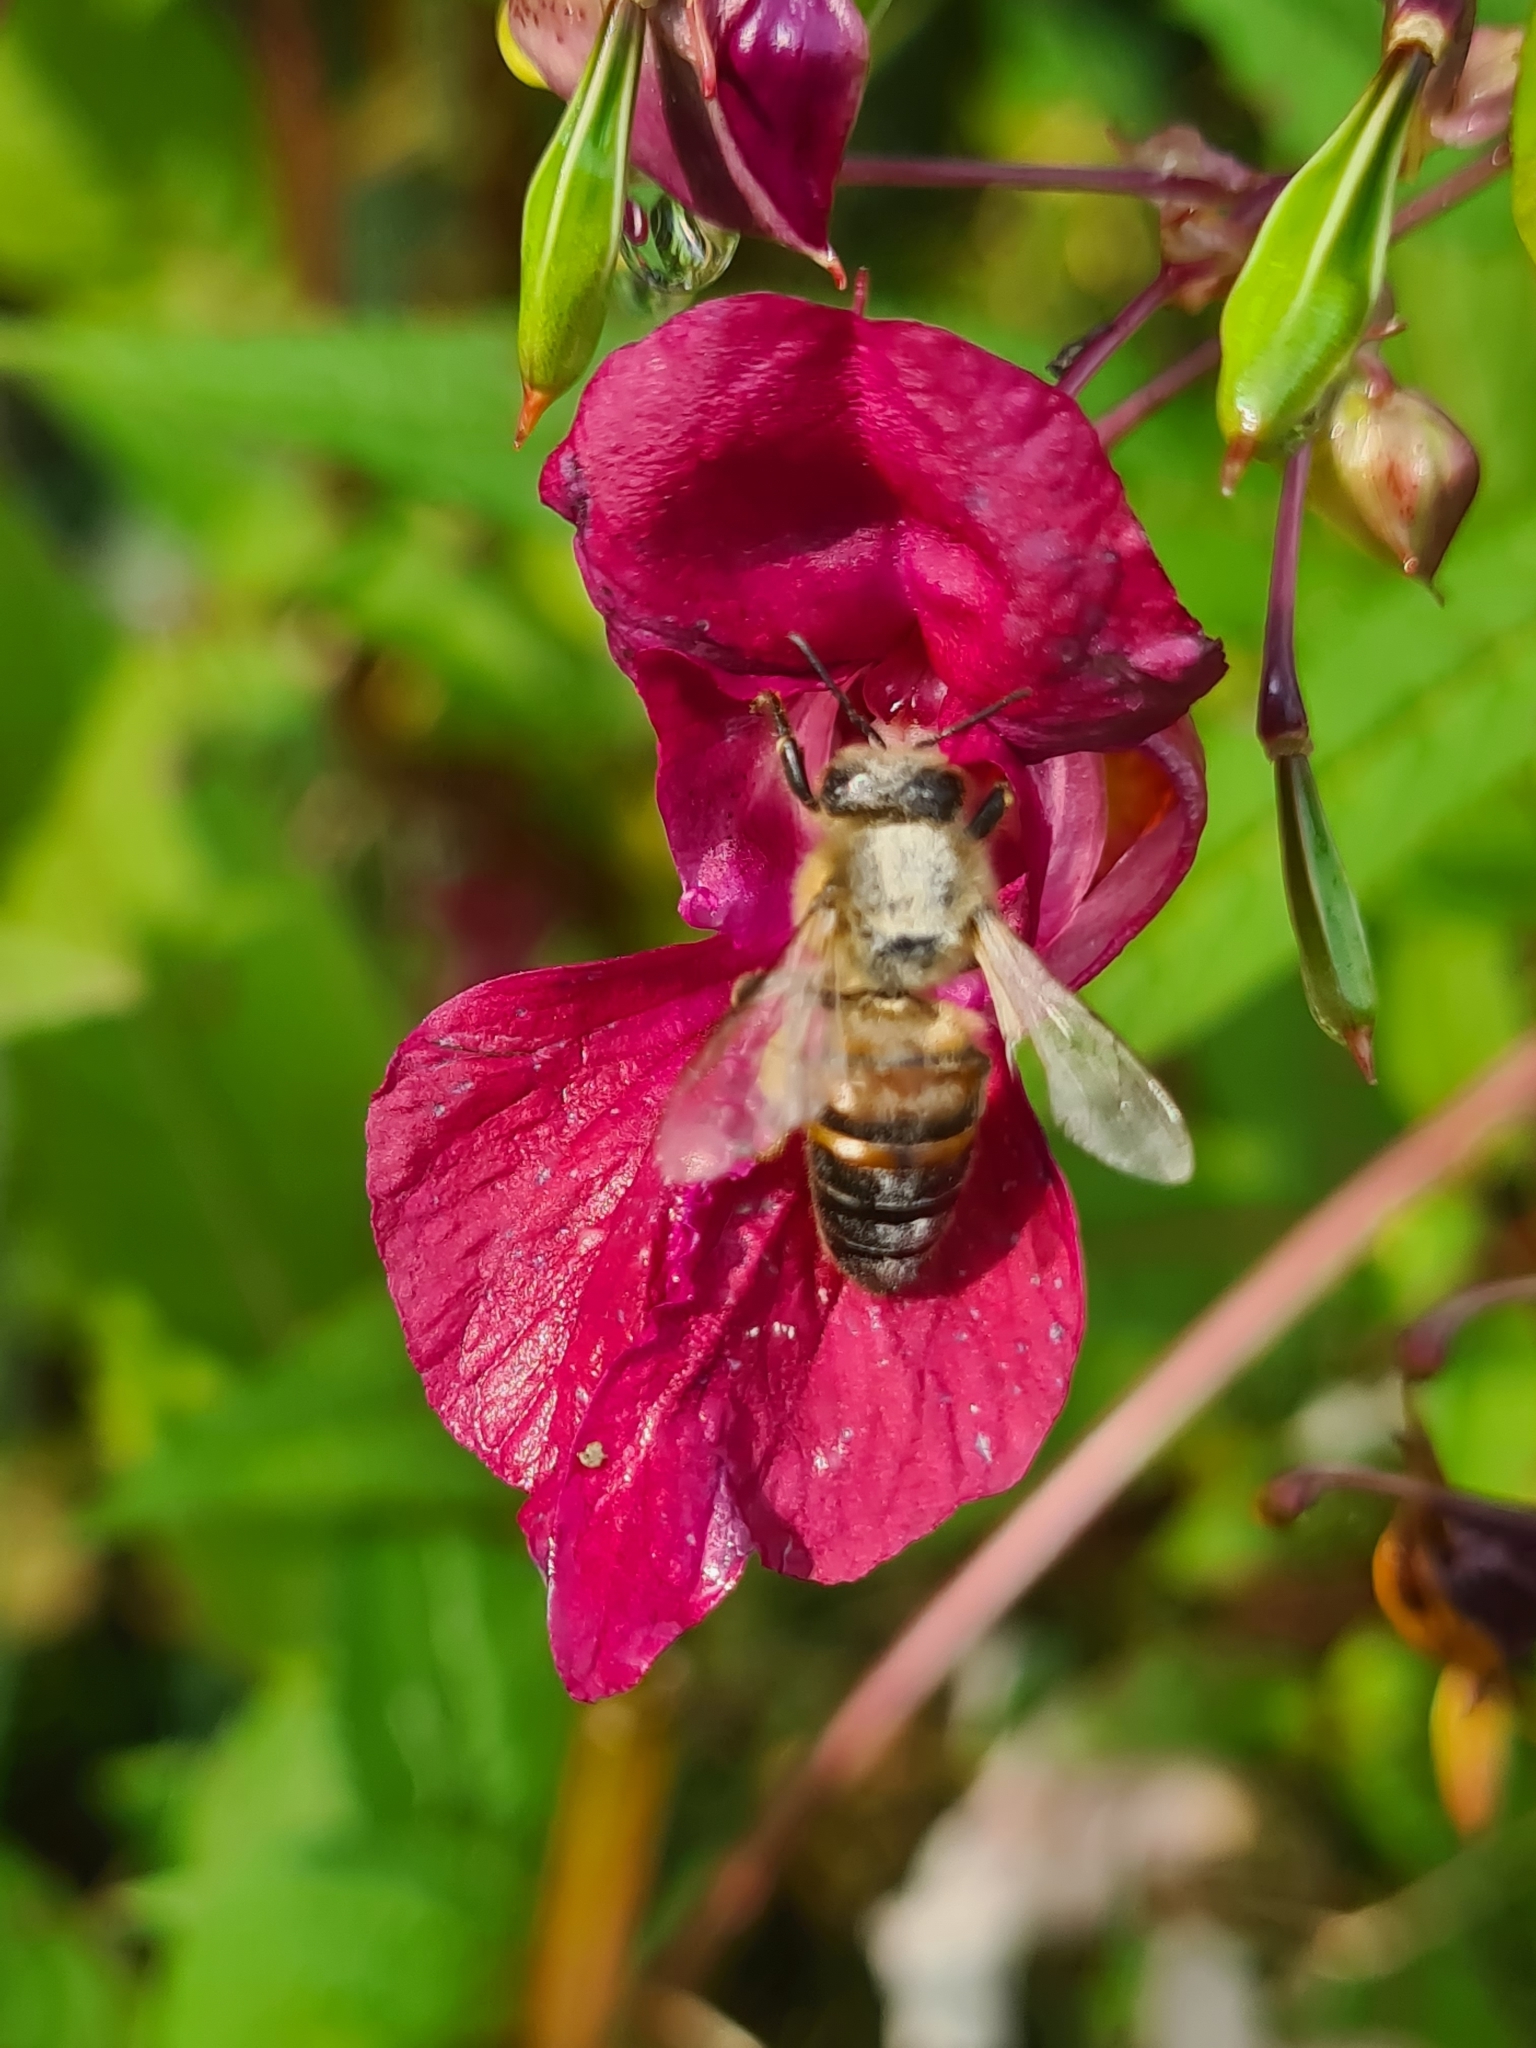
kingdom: Animalia
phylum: Arthropoda
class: Insecta
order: Hymenoptera
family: Apidae
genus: Apis
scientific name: Apis mellifera
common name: Honey bee
